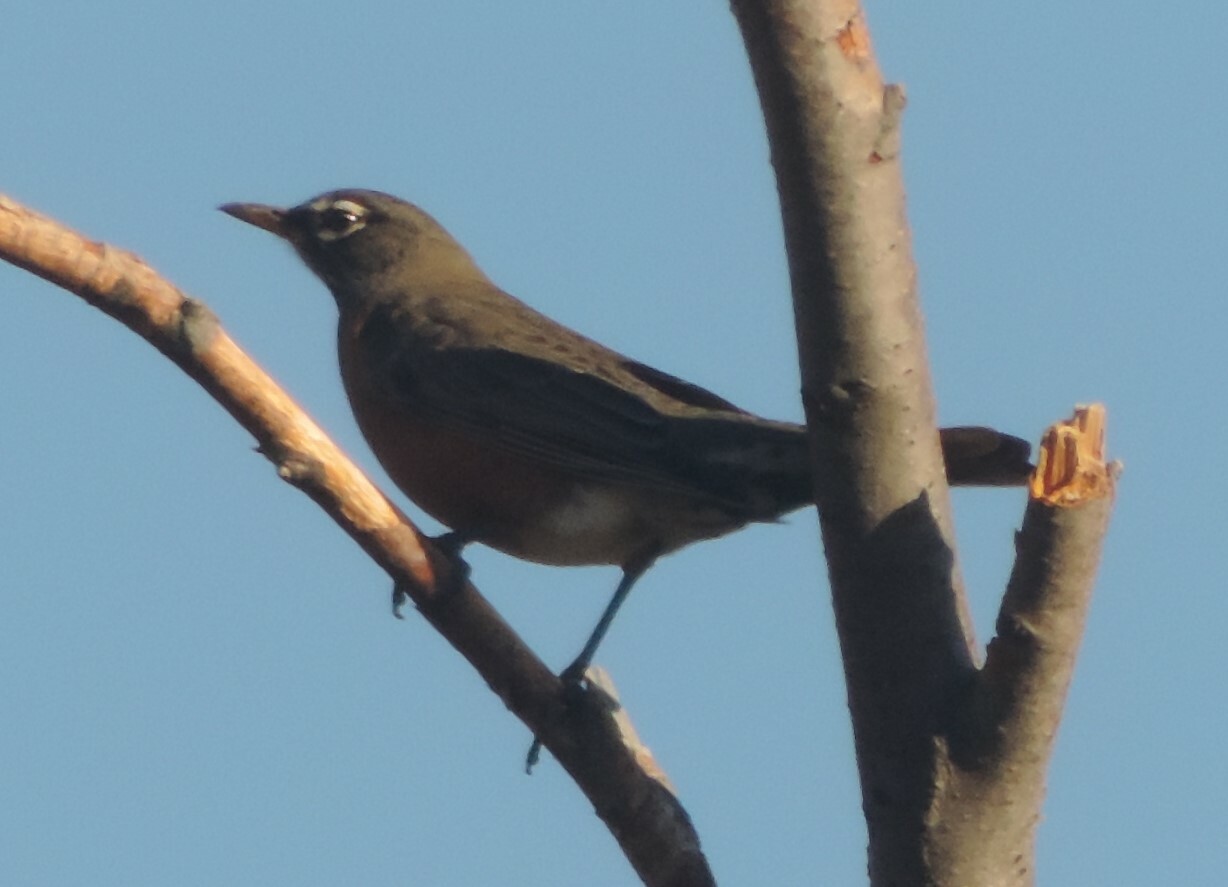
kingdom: Animalia
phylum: Chordata
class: Aves
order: Passeriformes
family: Turdidae
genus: Turdus
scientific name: Turdus migratorius
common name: American robin
